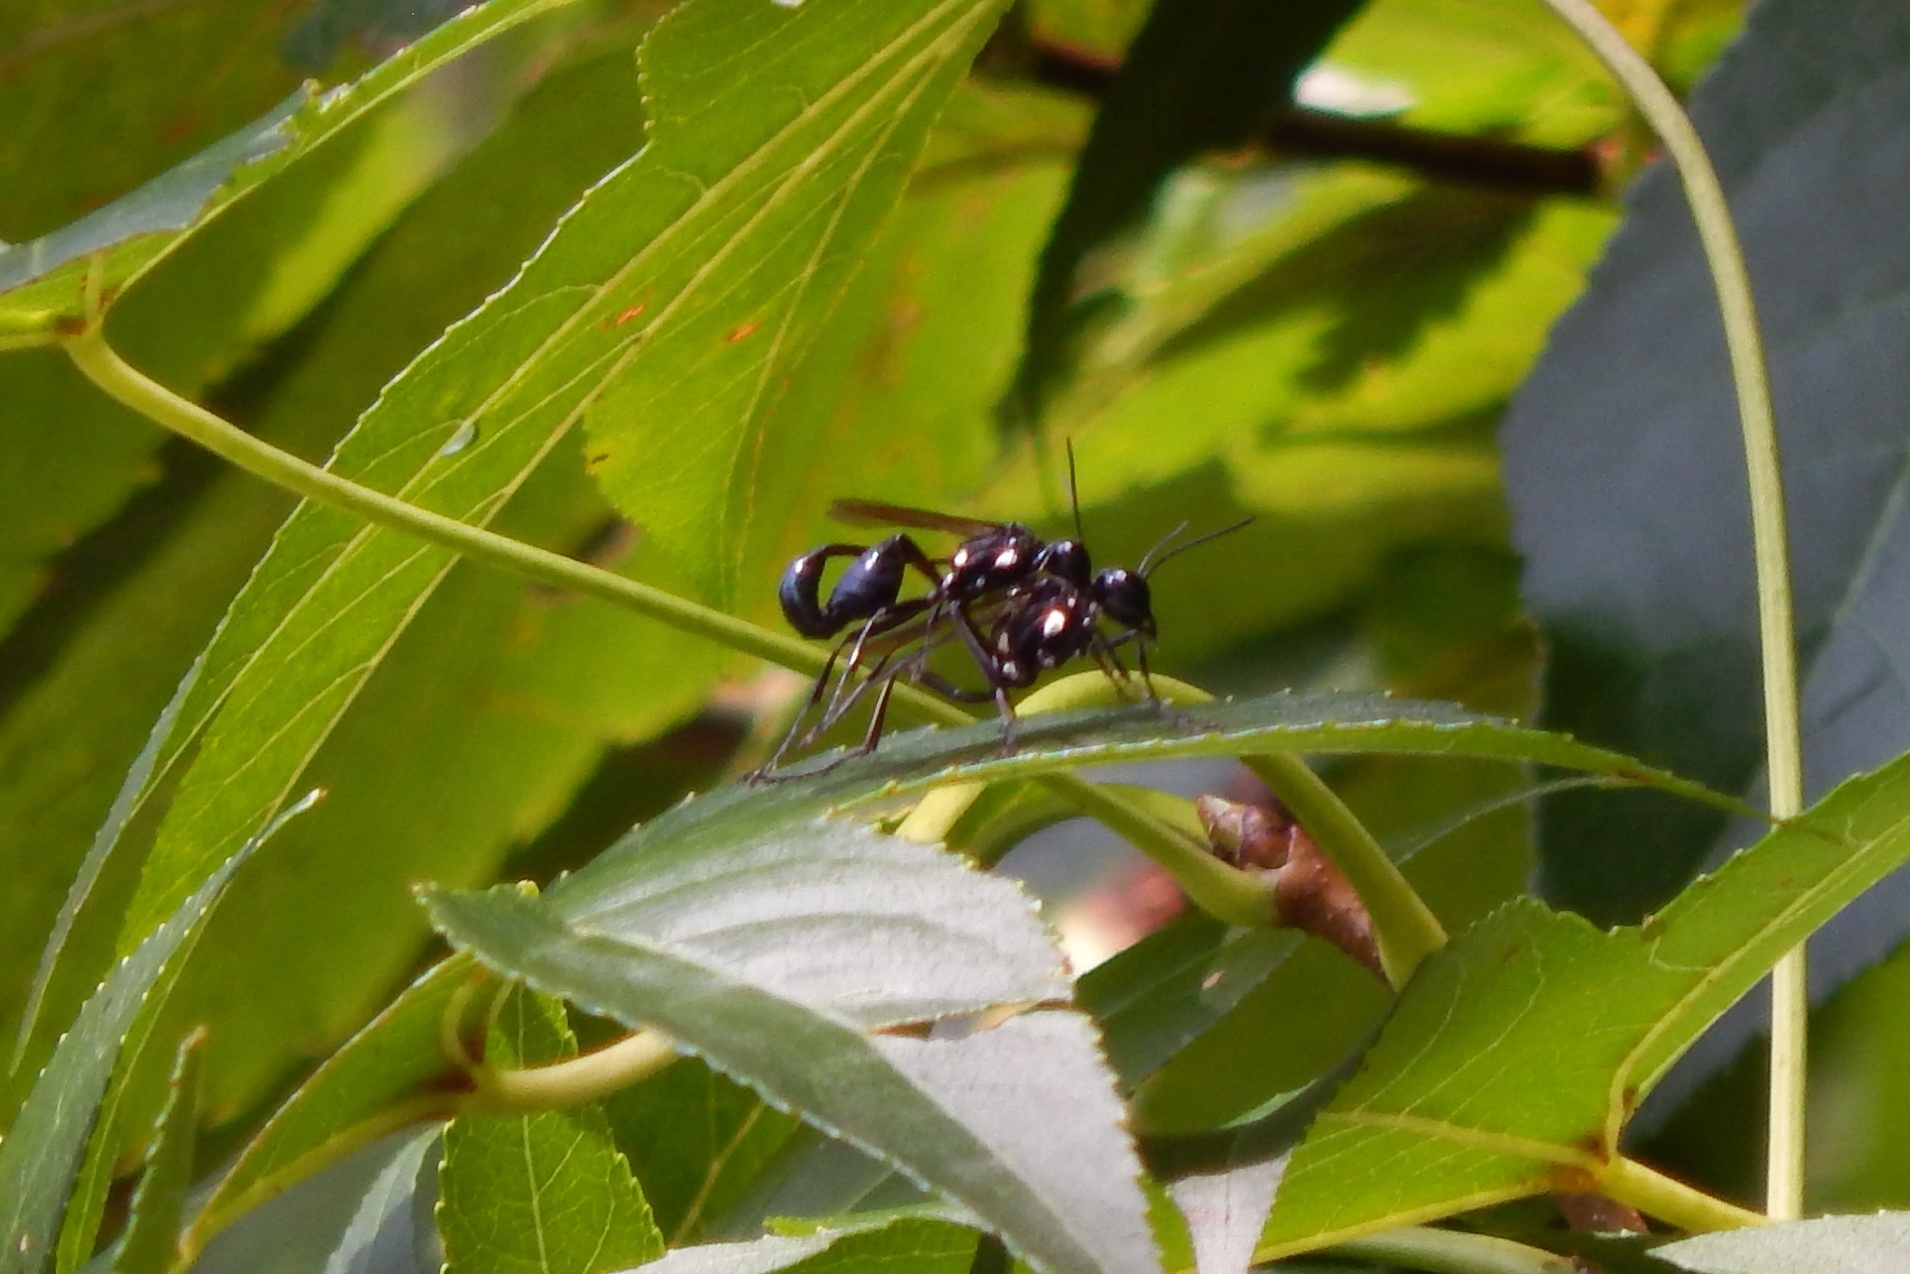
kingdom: Animalia
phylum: Arthropoda
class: Insecta
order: Hymenoptera
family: Sphecidae
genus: Eremnophila
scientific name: Eremnophila aureonotata
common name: Gold-marked thread-waisted wasp
